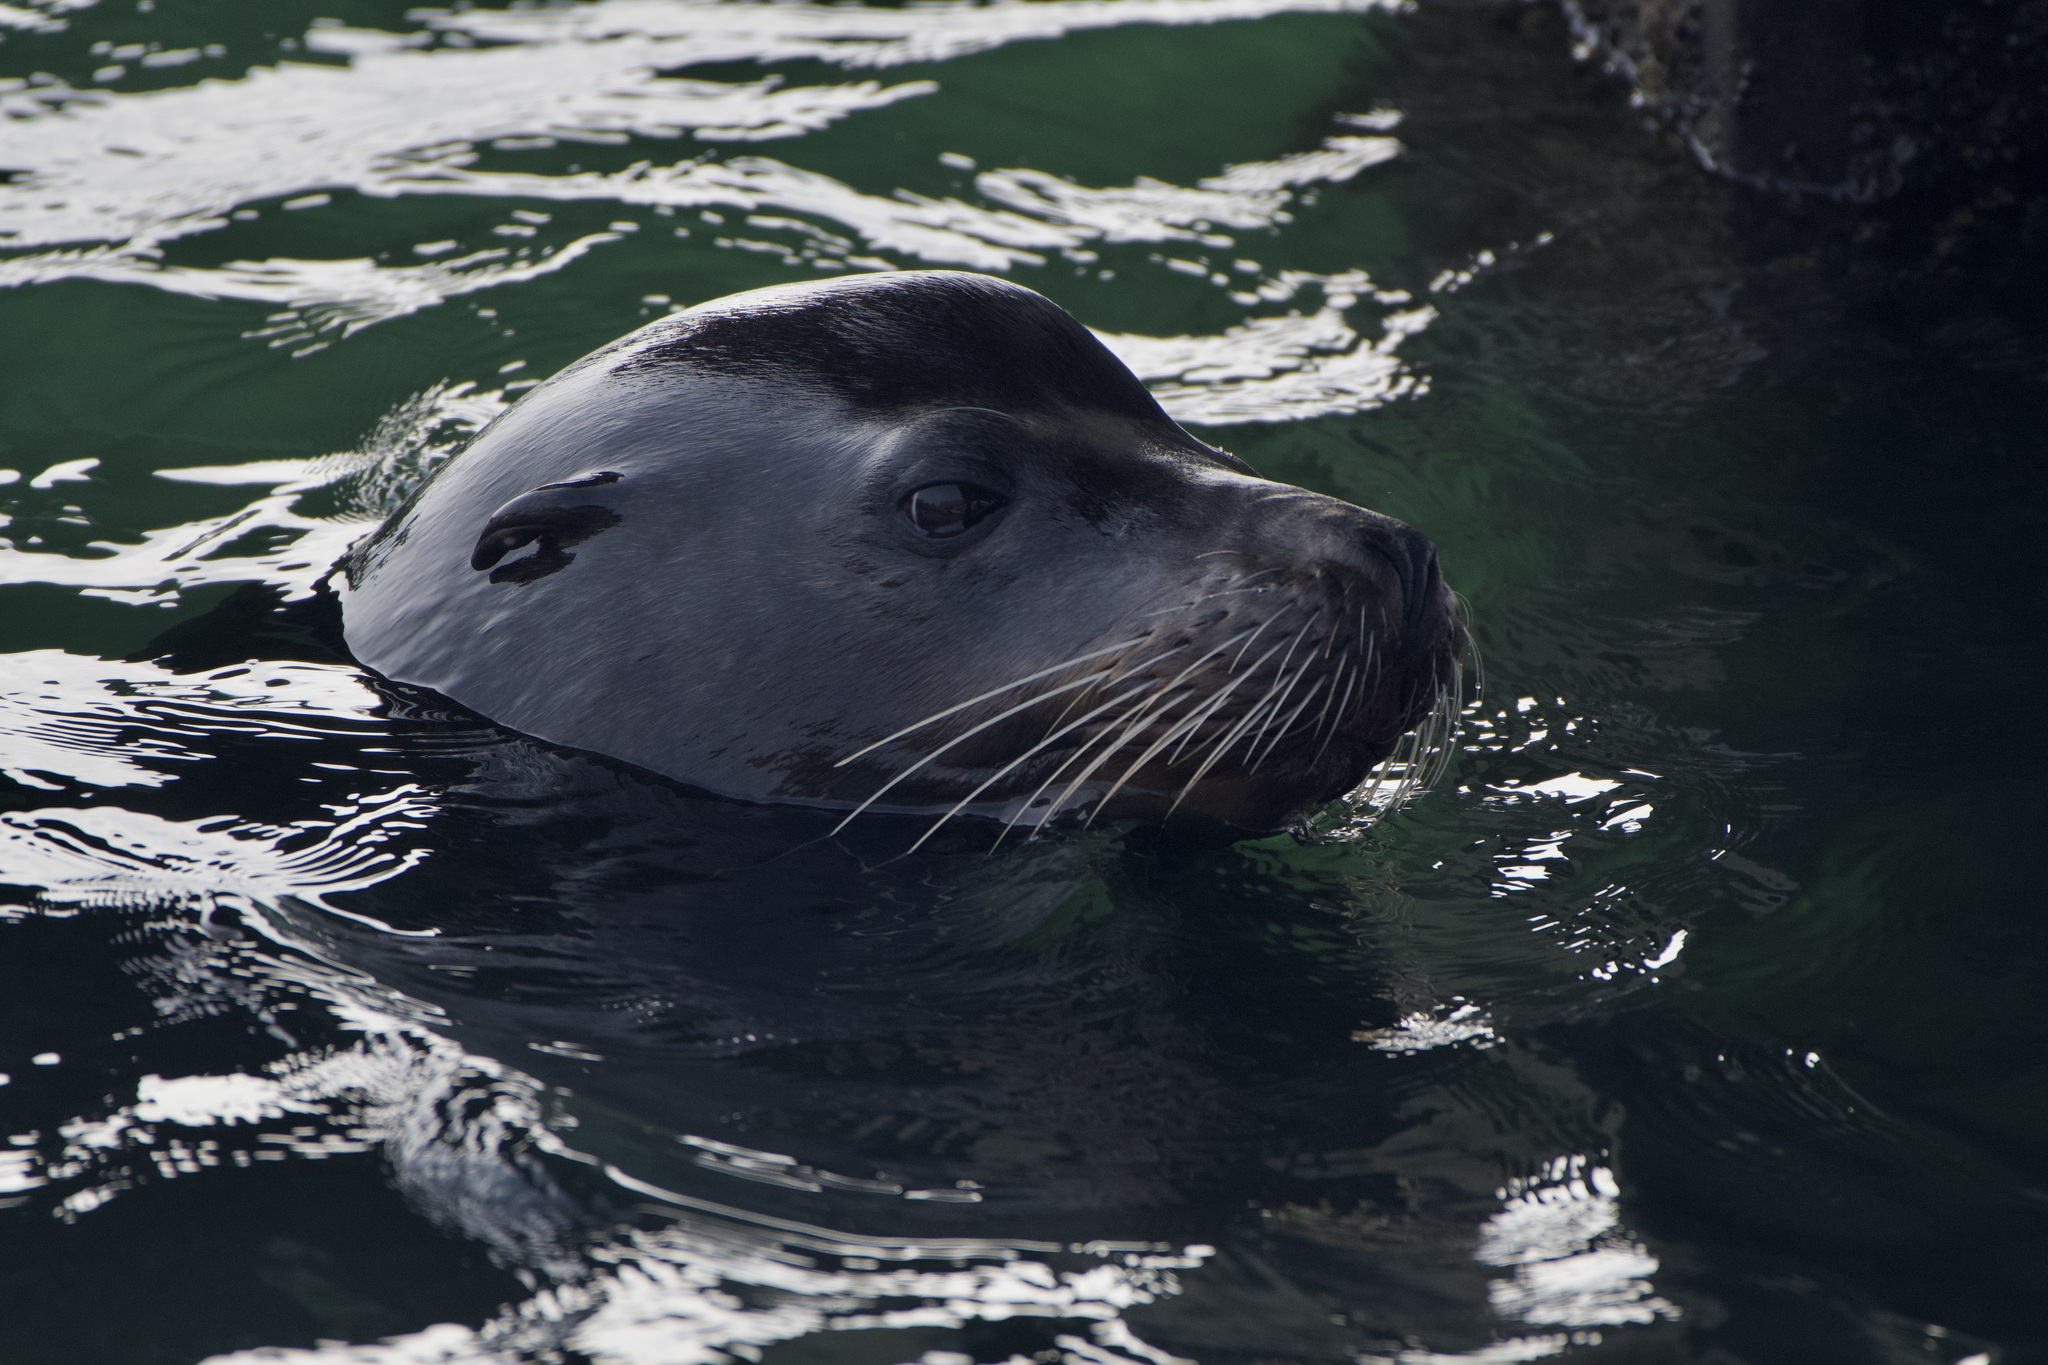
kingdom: Animalia
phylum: Chordata
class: Mammalia
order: Carnivora
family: Otariidae
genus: Zalophus
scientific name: Zalophus californianus
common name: California sea lion
